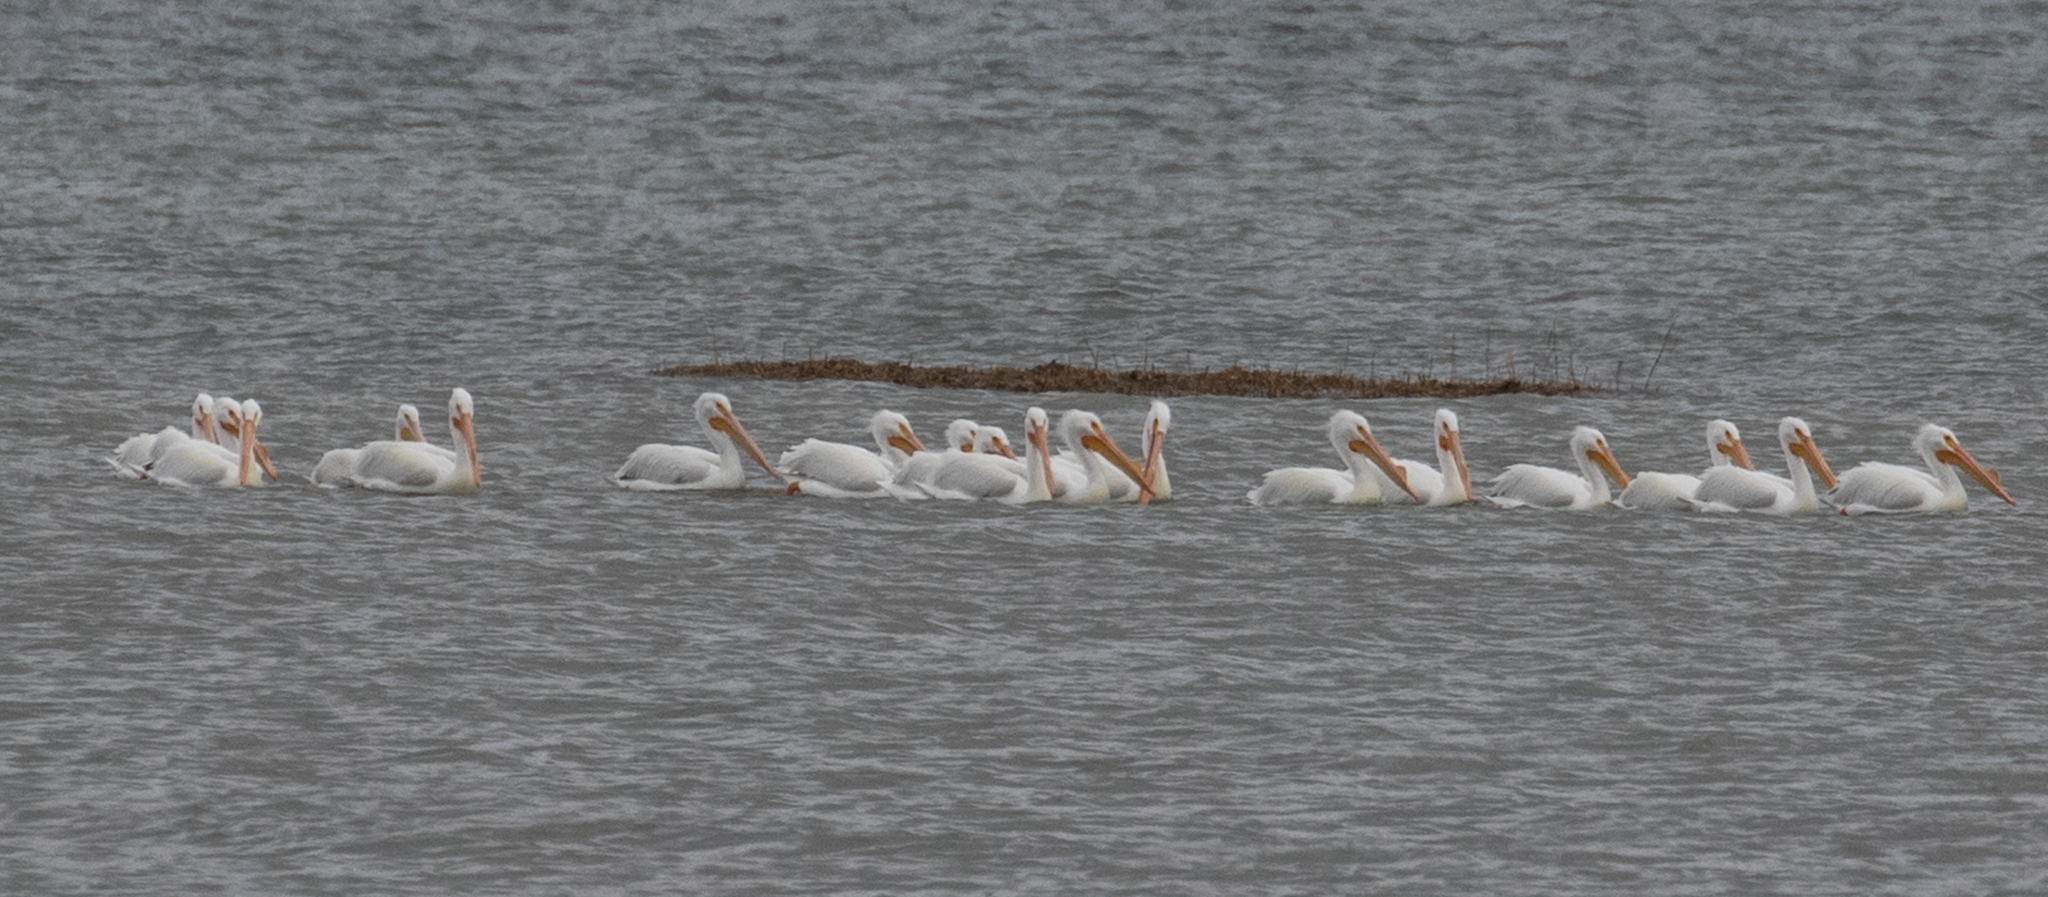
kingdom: Animalia
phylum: Chordata
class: Aves
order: Pelecaniformes
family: Pelecanidae
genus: Pelecanus
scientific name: Pelecanus erythrorhynchos
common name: American white pelican
